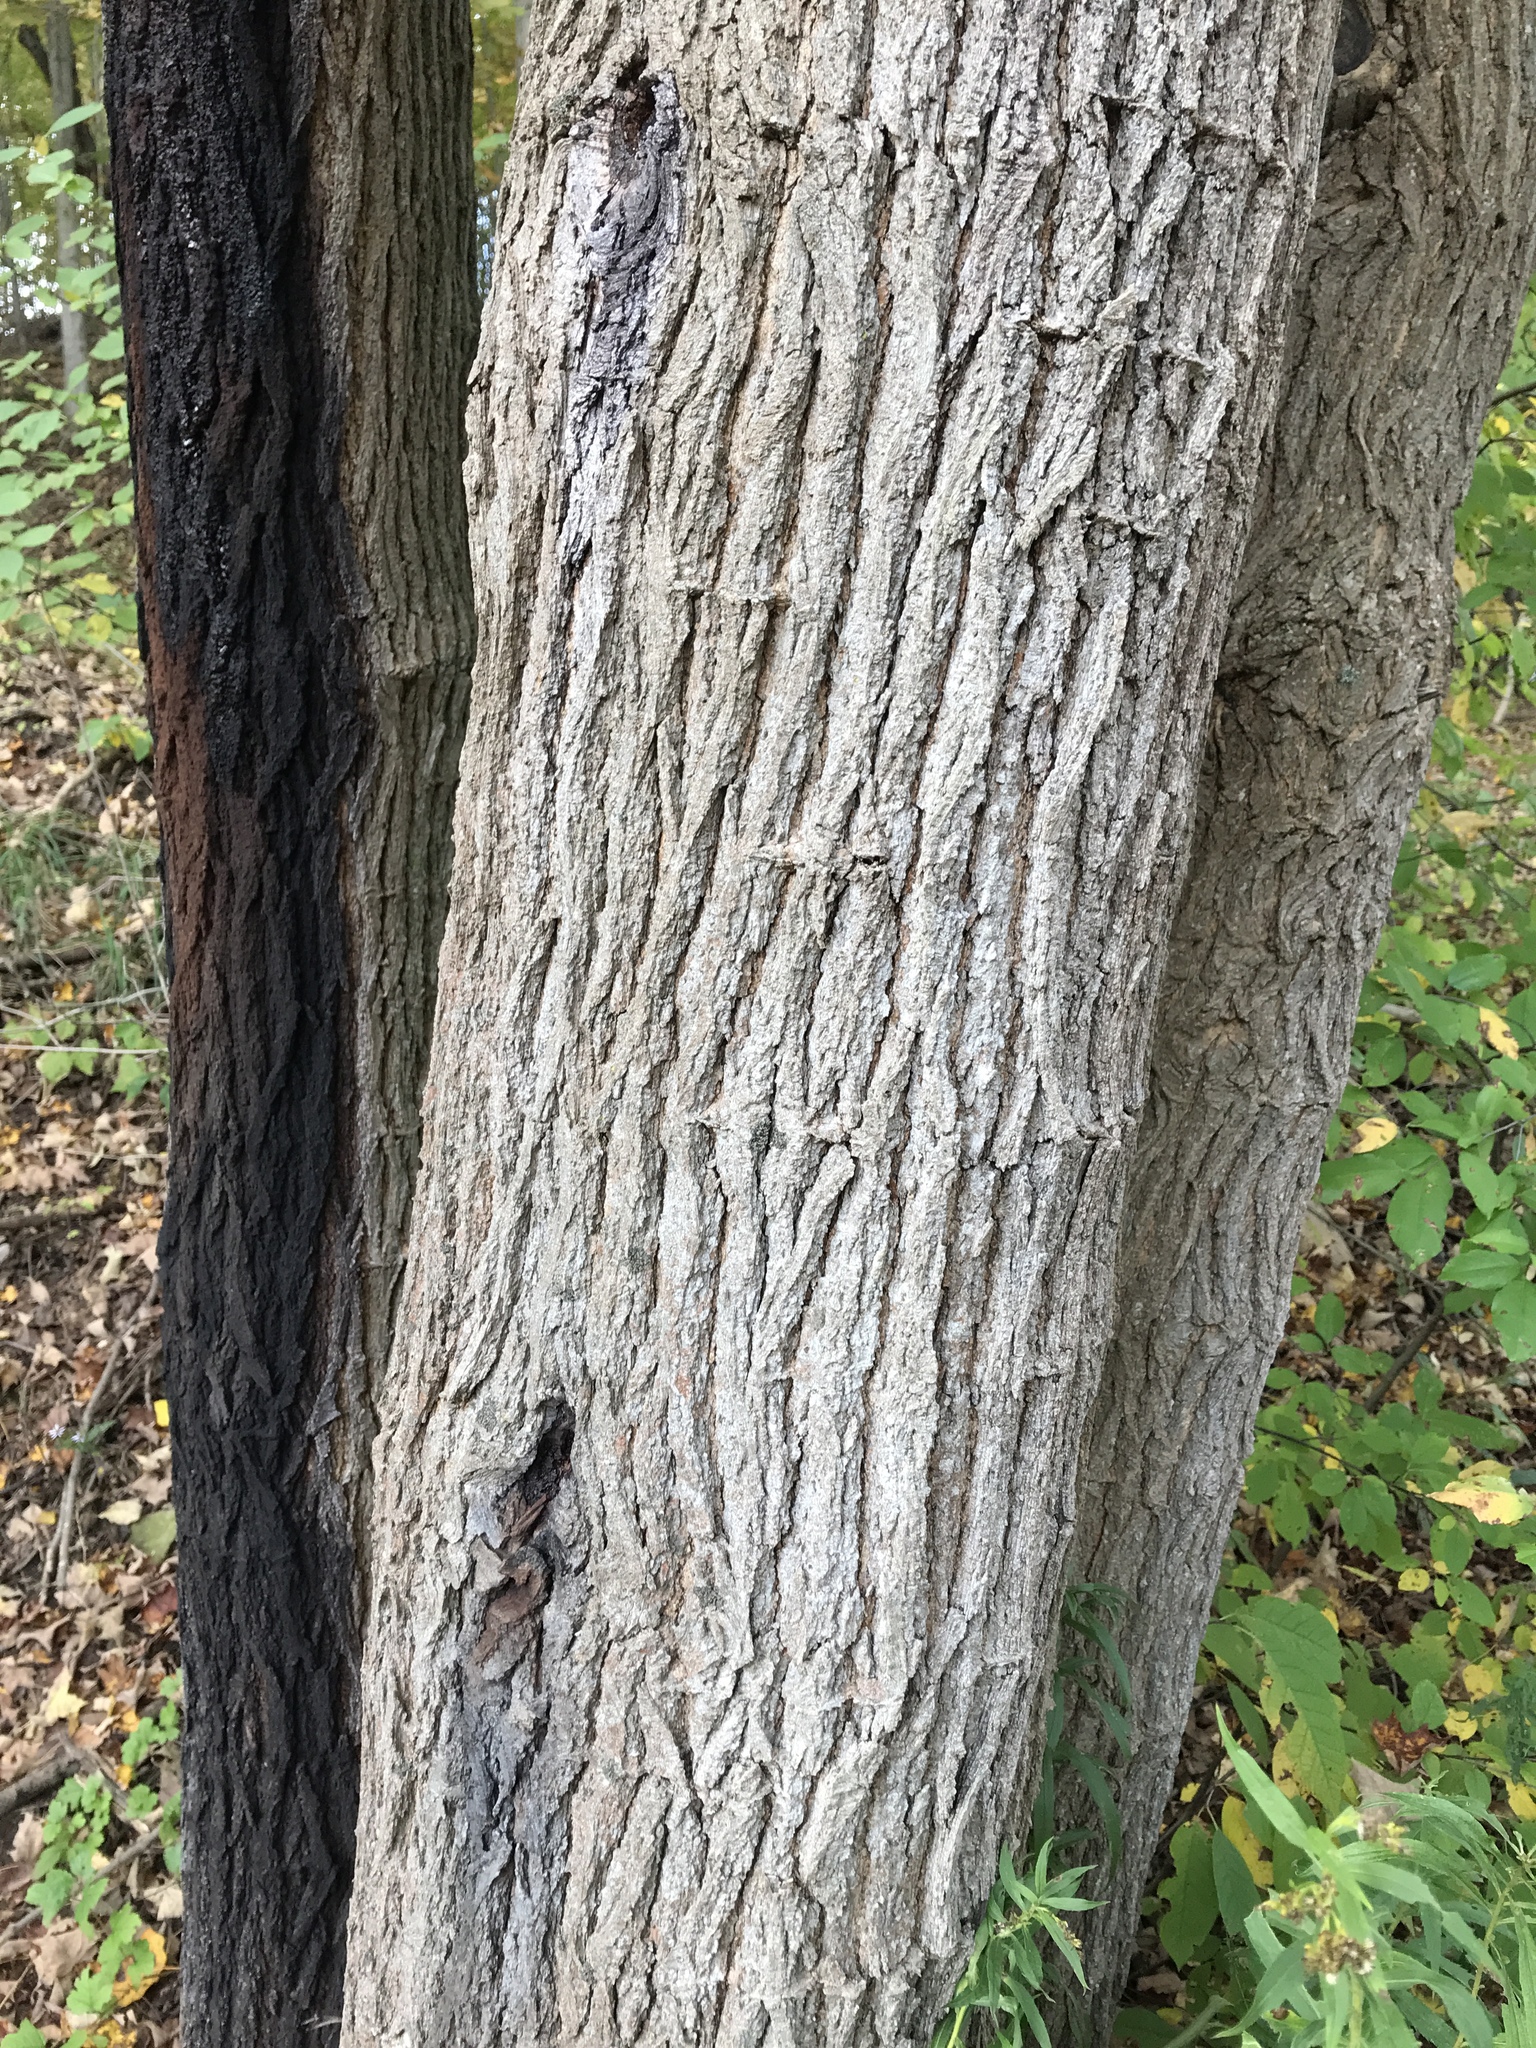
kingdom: Plantae
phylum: Tracheophyta
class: Magnoliopsida
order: Rosales
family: Moraceae
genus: Morus
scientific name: Morus alba
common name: White mulberry
